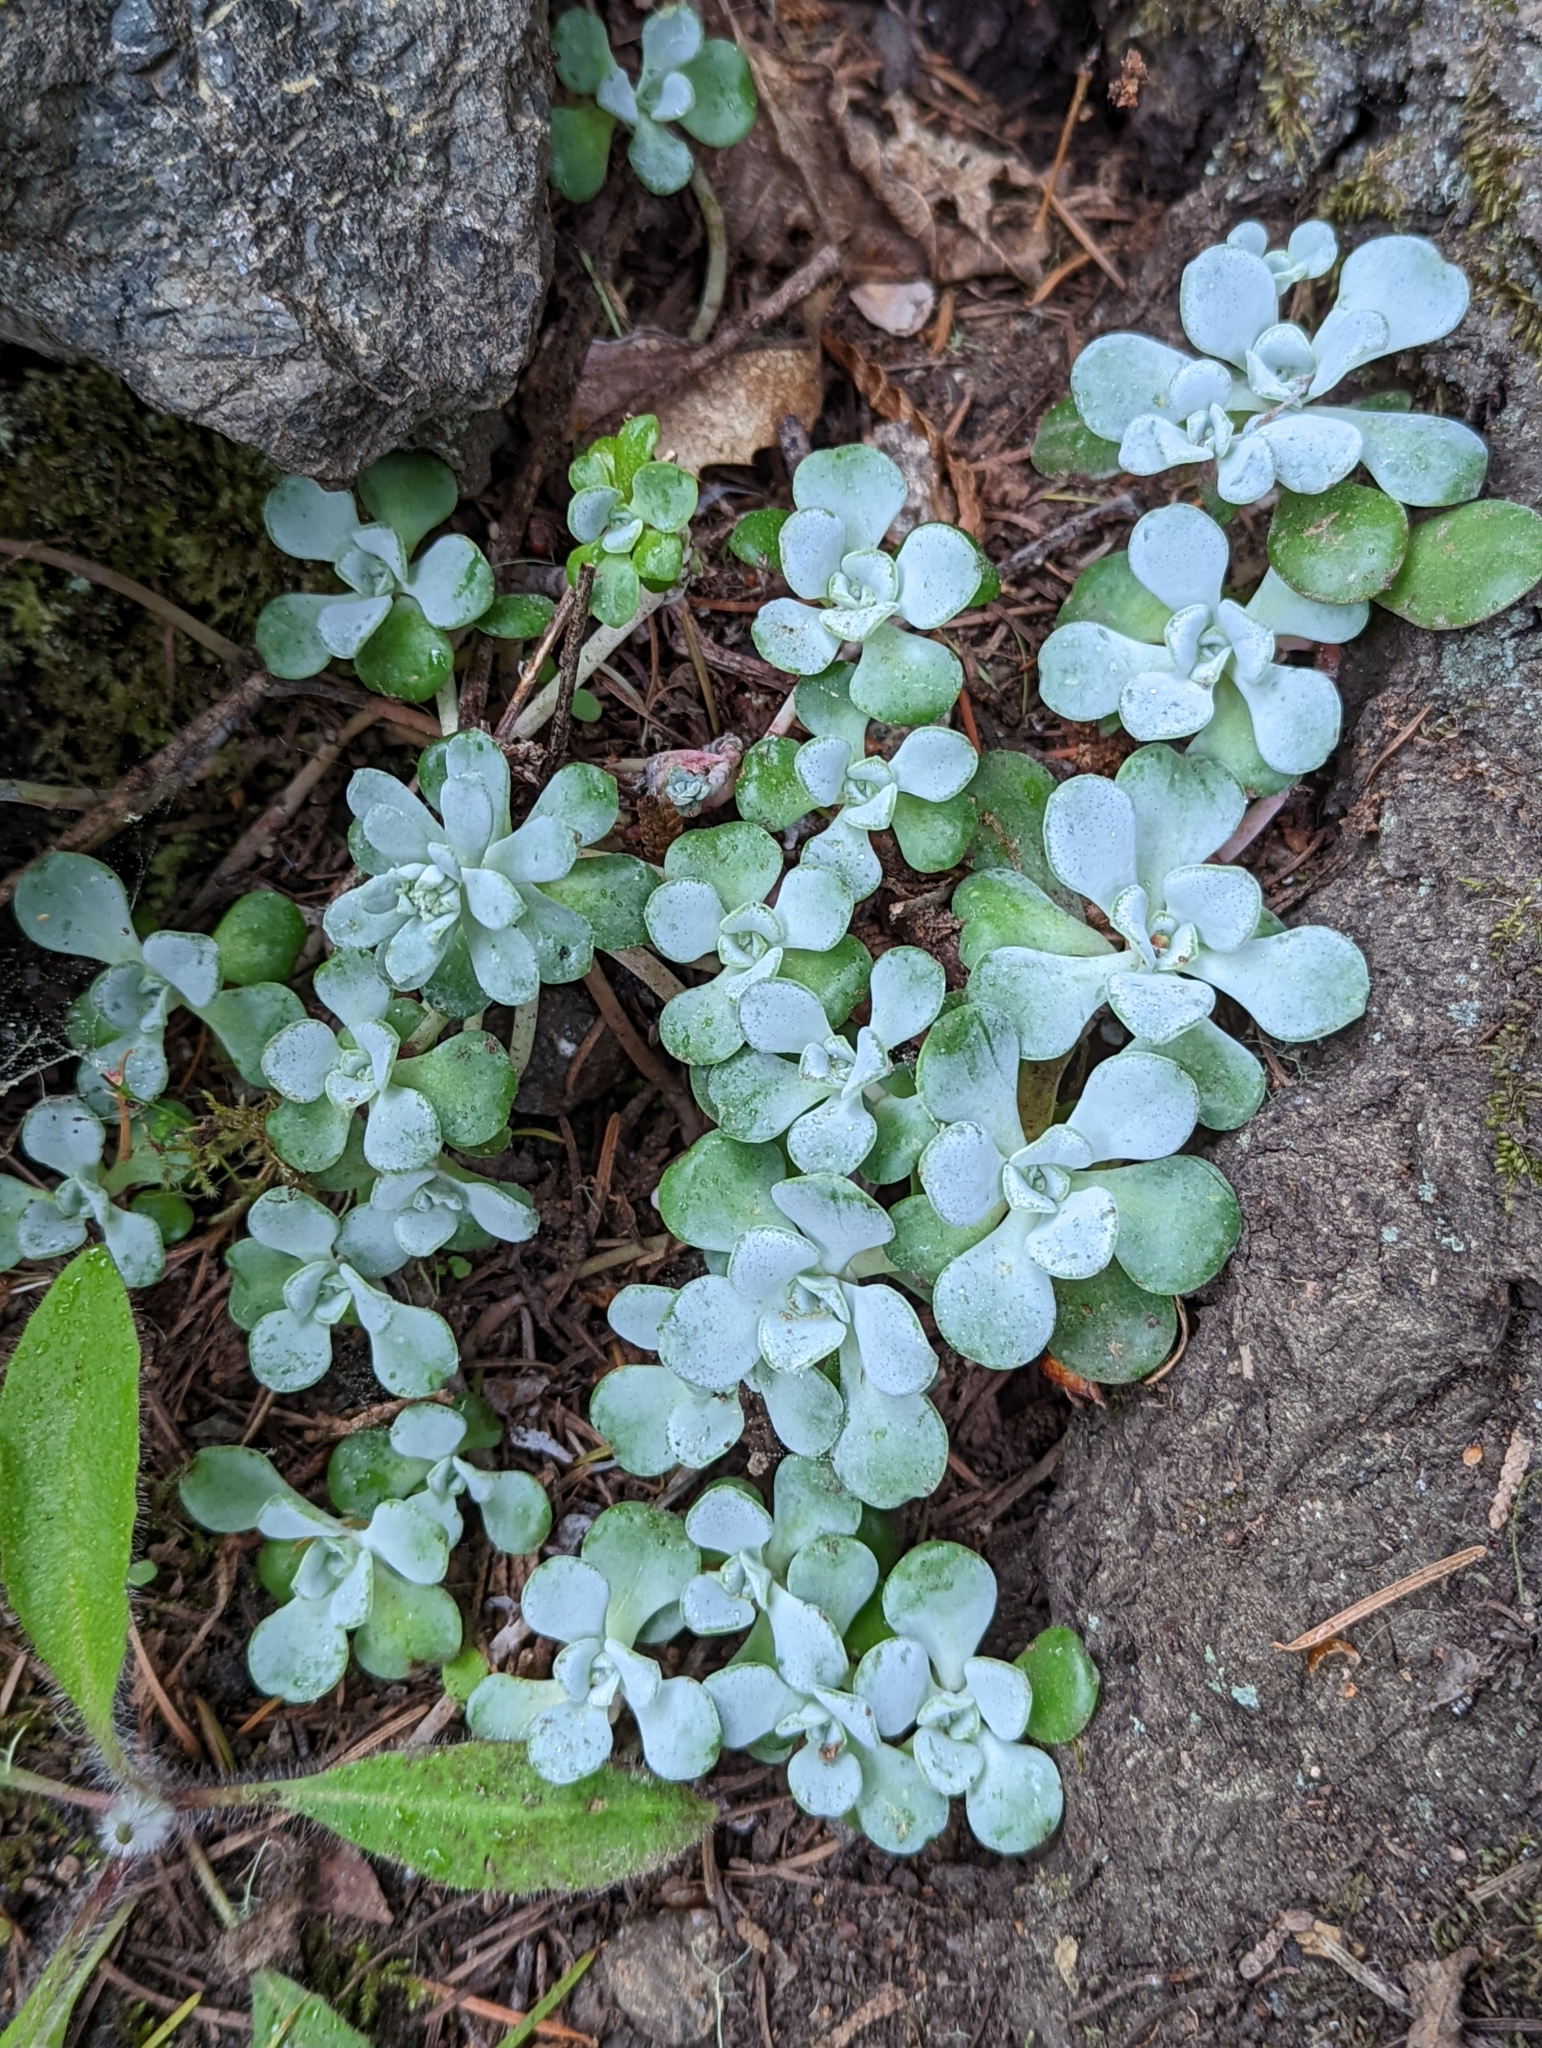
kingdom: Plantae
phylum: Tracheophyta
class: Magnoliopsida
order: Saxifragales
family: Crassulaceae
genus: Sedum
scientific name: Sedum spathulifolium
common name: Colorado stonecrop
